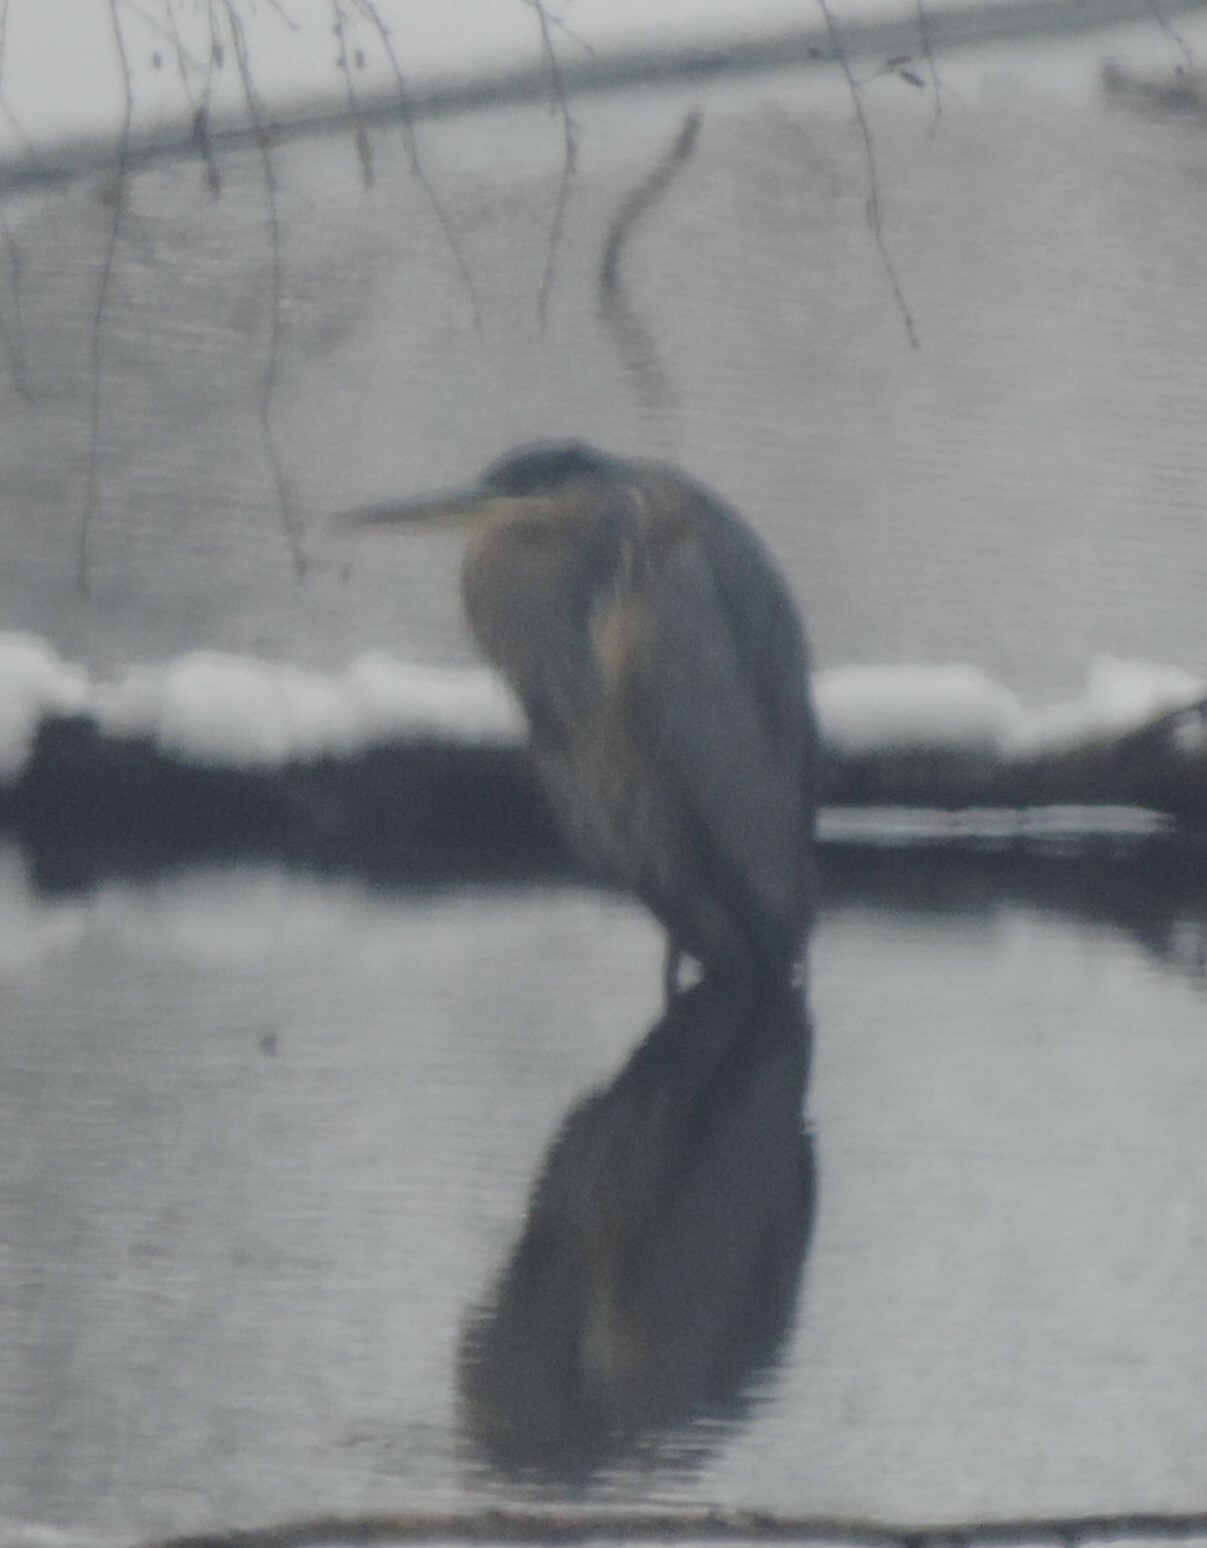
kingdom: Animalia
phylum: Chordata
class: Aves
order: Pelecaniformes
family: Ardeidae
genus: Ardea
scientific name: Ardea herodias
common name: Great blue heron
